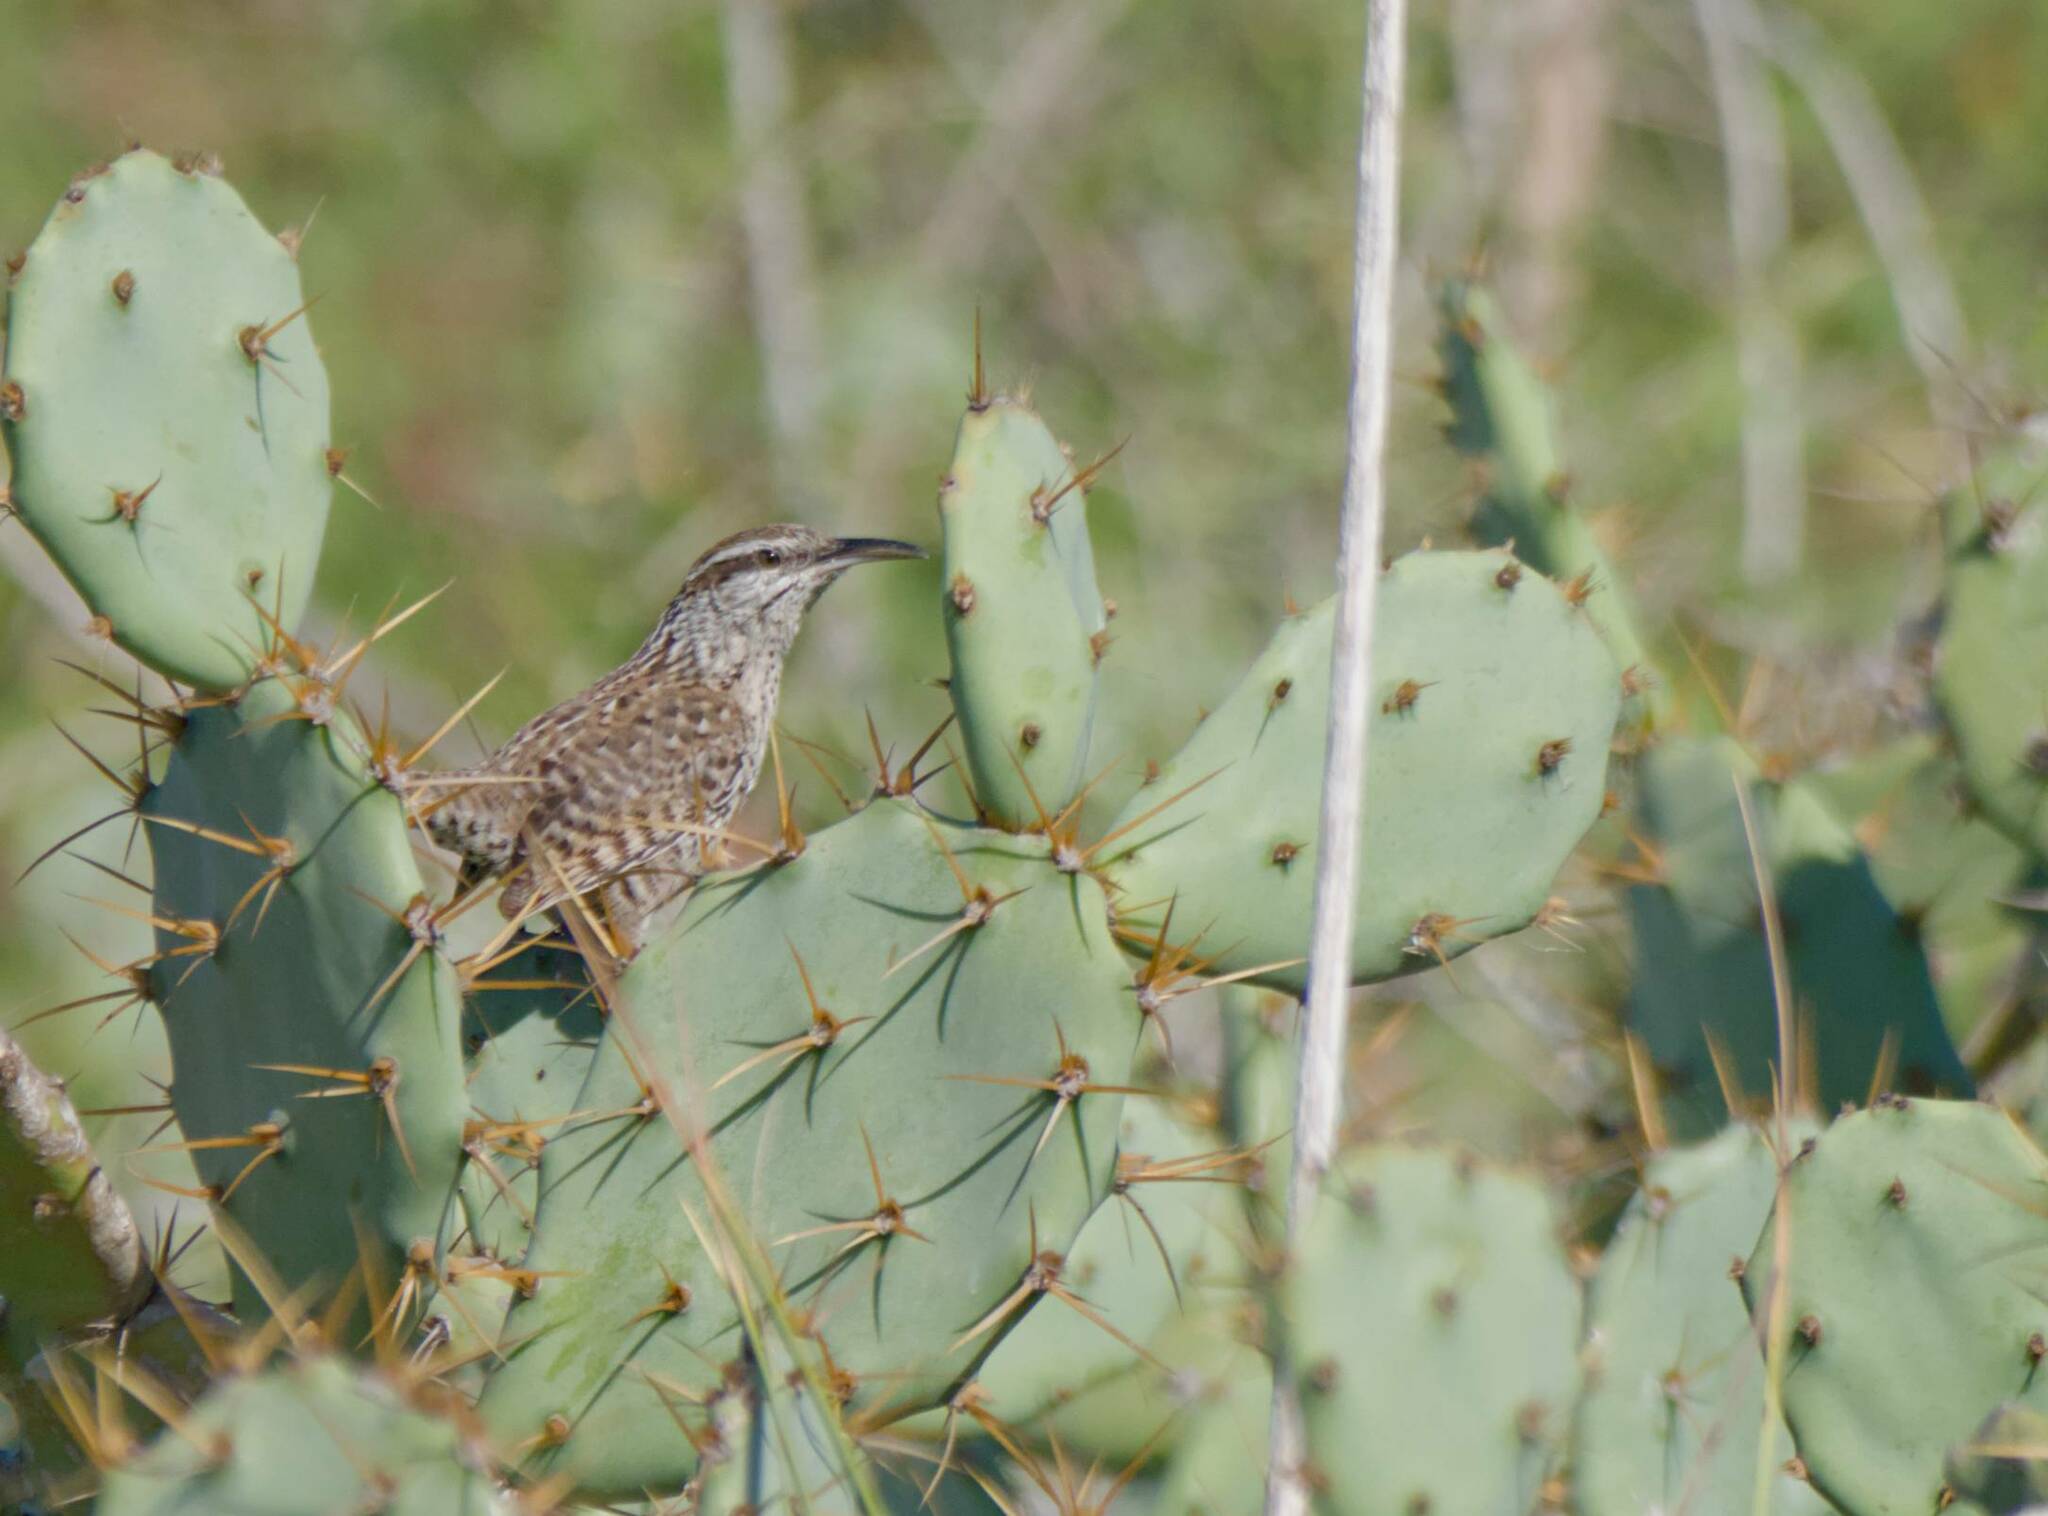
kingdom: Animalia
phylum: Chordata
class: Aves
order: Passeriformes
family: Troglodytidae
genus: Campylorhynchus
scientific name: Campylorhynchus yucatanicus
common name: Yucatan wren
